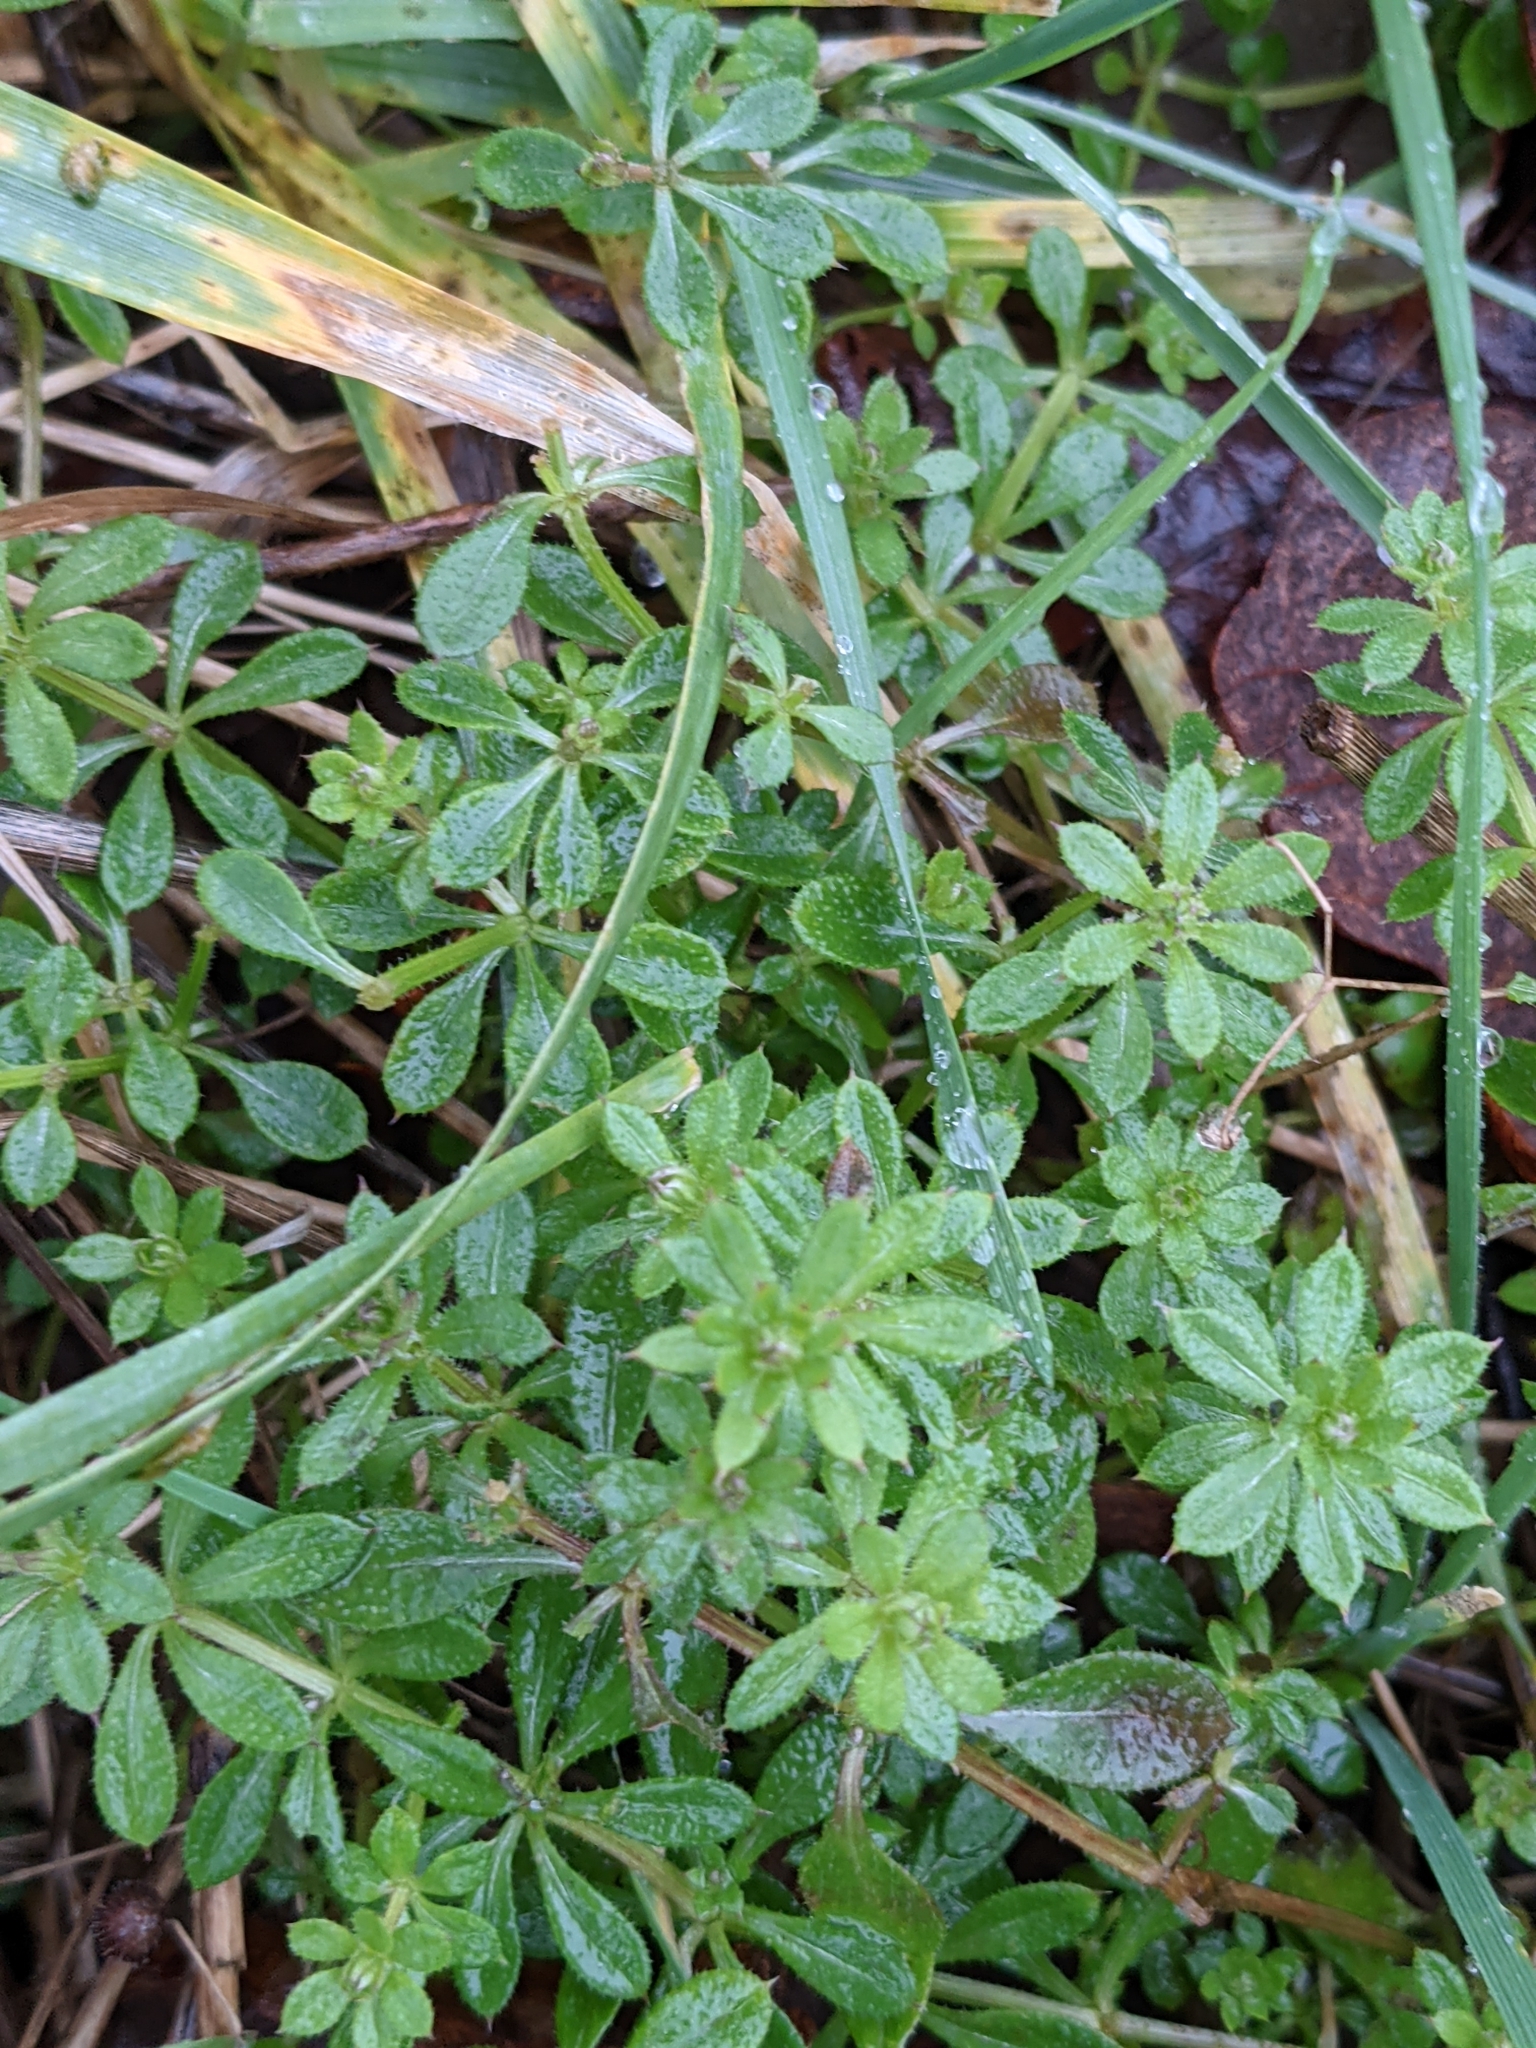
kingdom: Plantae
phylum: Tracheophyta
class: Magnoliopsida
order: Gentianales
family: Rubiaceae
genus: Galium
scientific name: Galium aparine
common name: Cleavers
